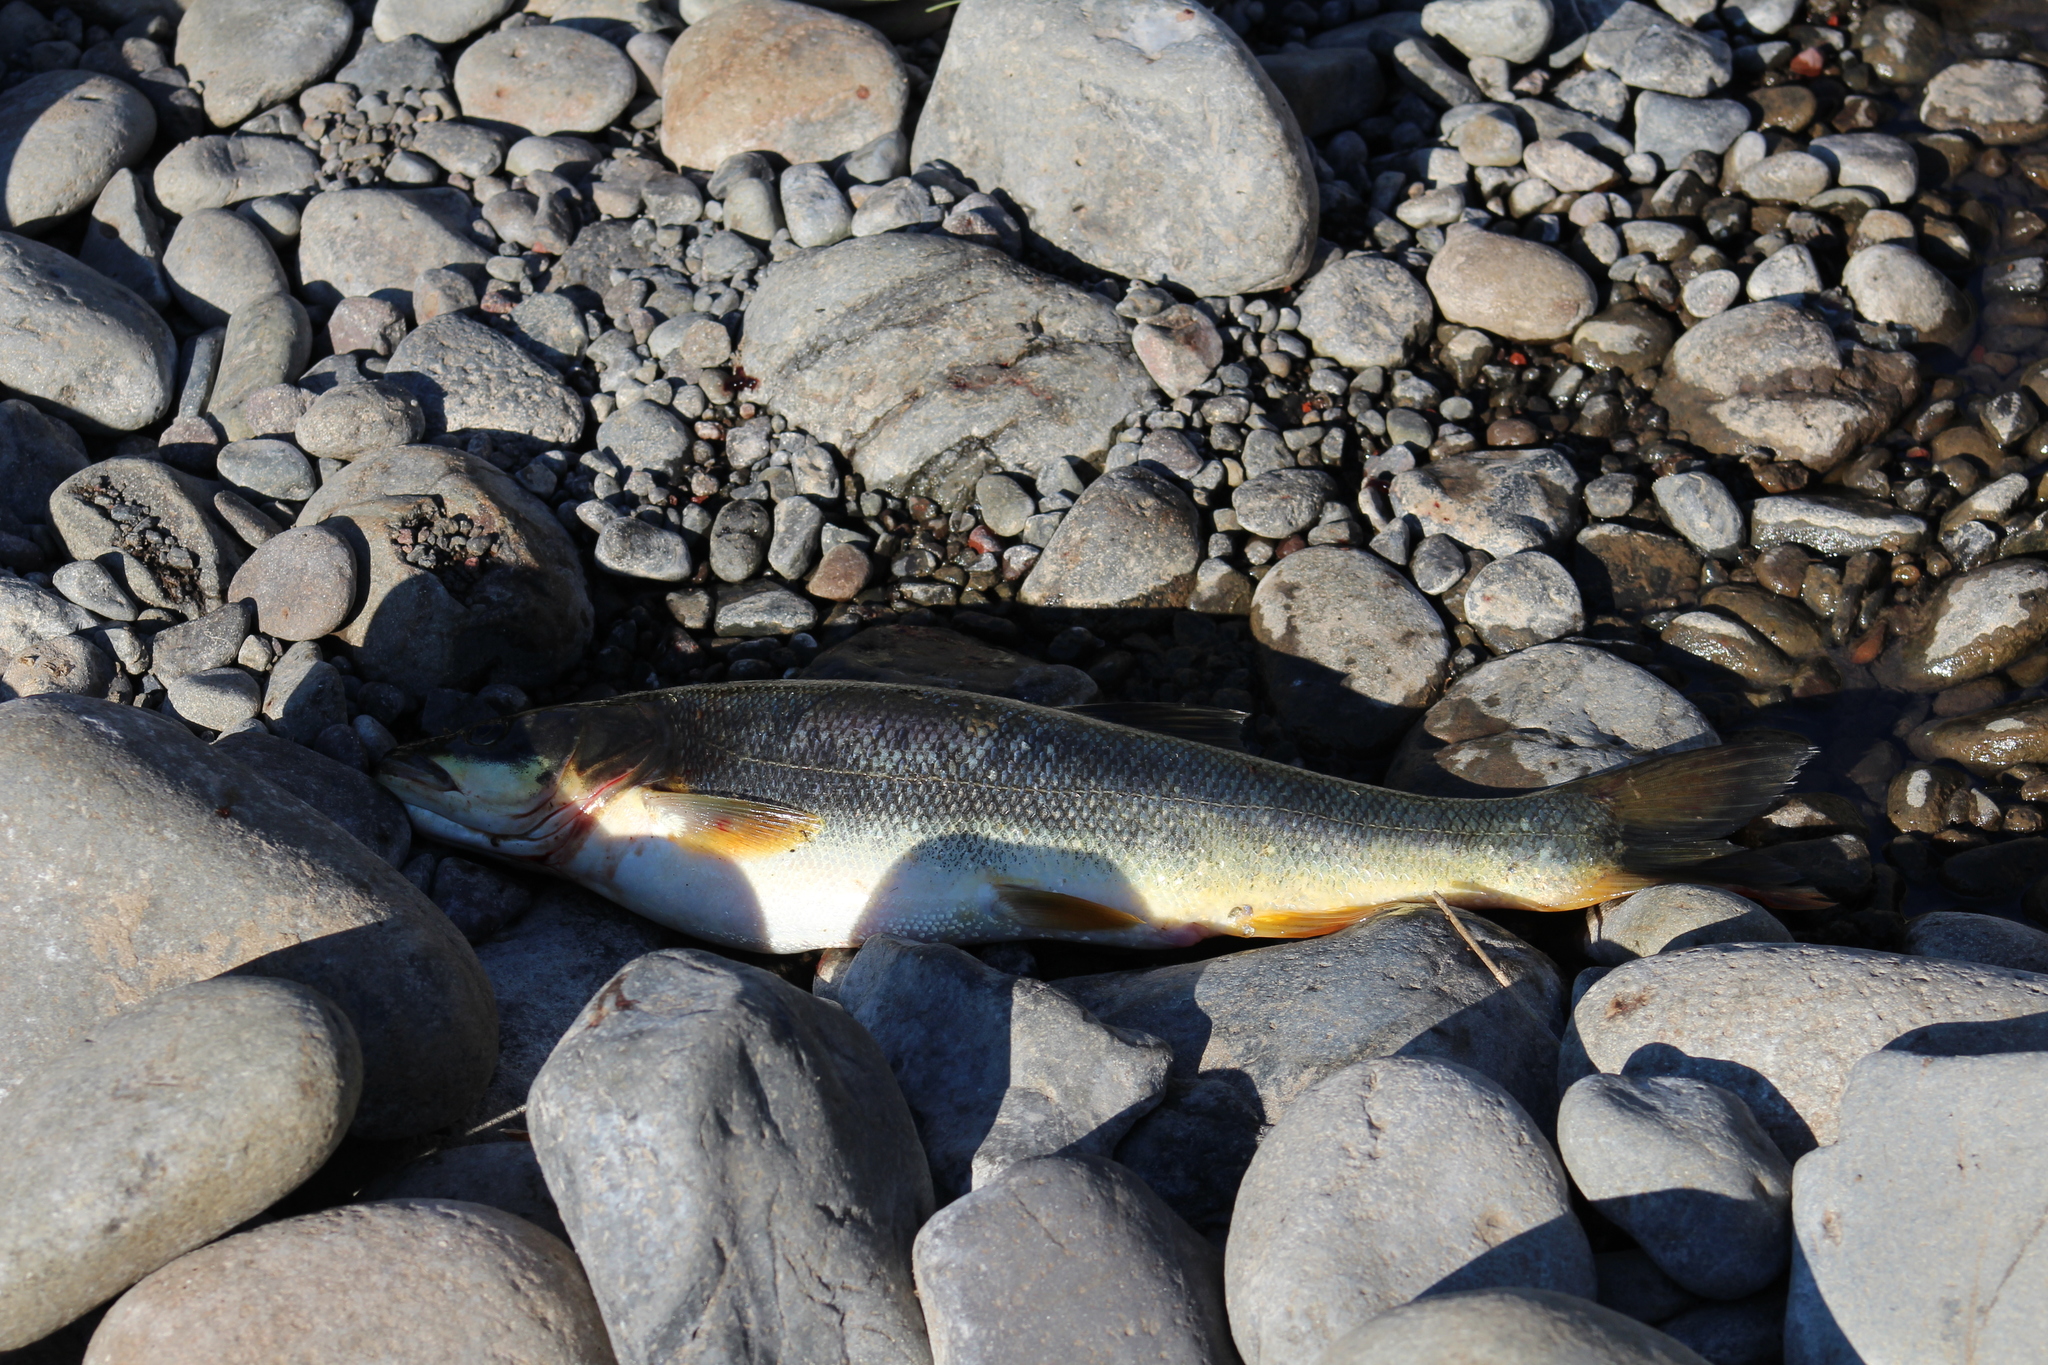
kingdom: Animalia
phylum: Chordata
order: Cypriniformes
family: Cyprinidae
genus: Ptychocheilus
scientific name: Ptychocheilus oregonensis
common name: Northern pikeminnow
